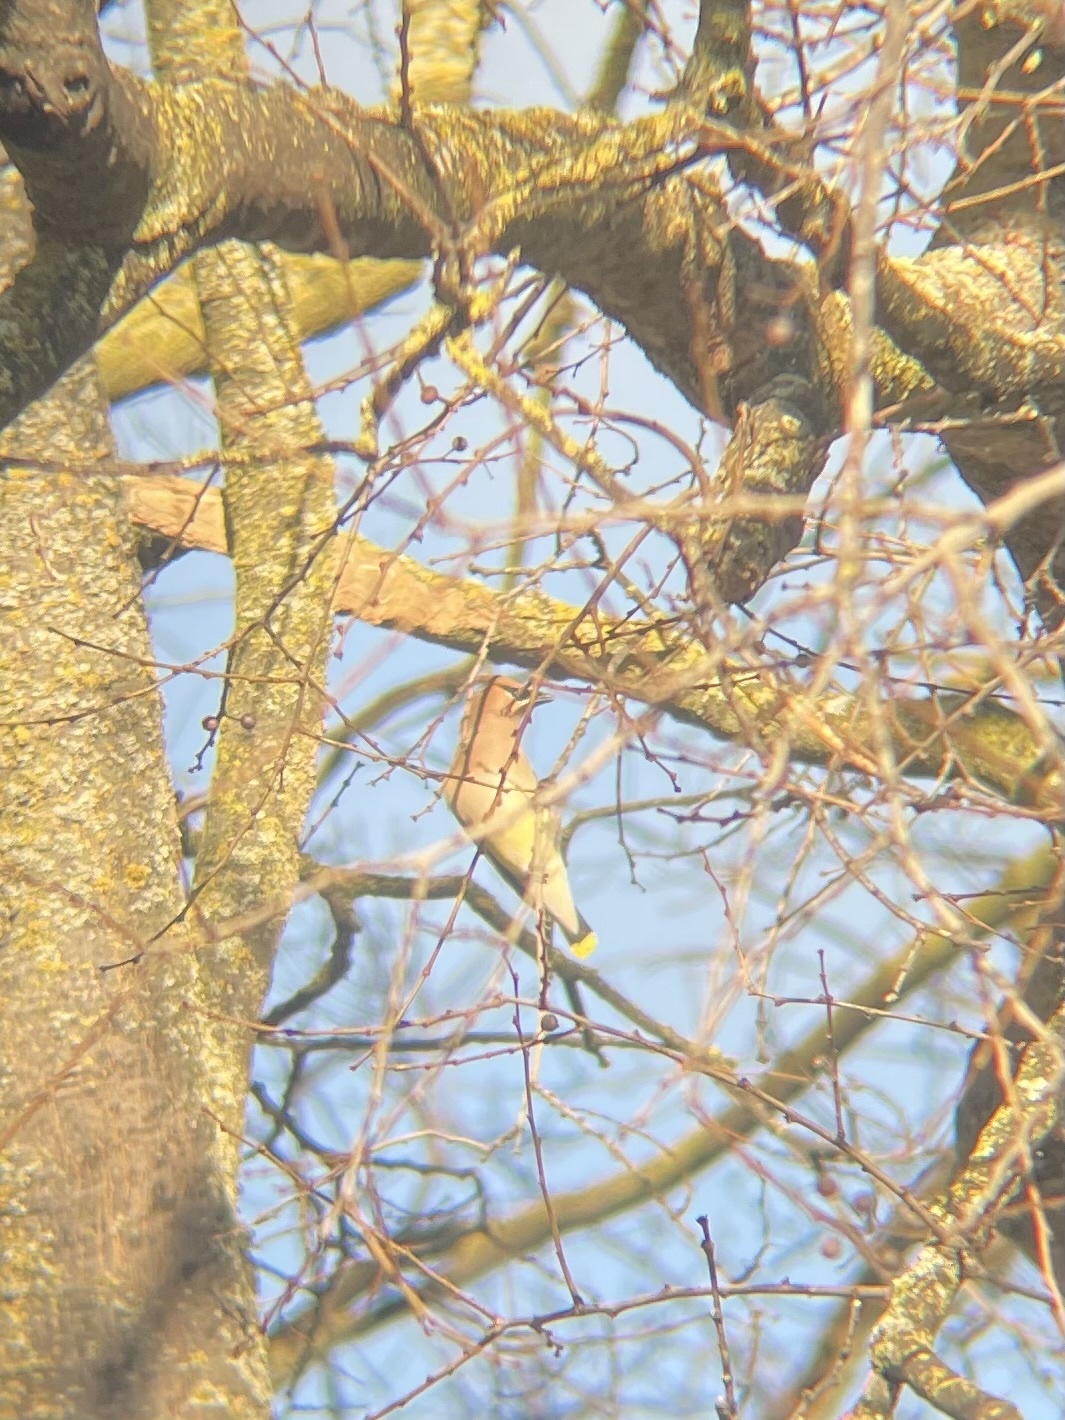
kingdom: Animalia
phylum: Chordata
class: Aves
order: Passeriformes
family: Bombycillidae
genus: Bombycilla
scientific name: Bombycilla cedrorum
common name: Cedar waxwing
